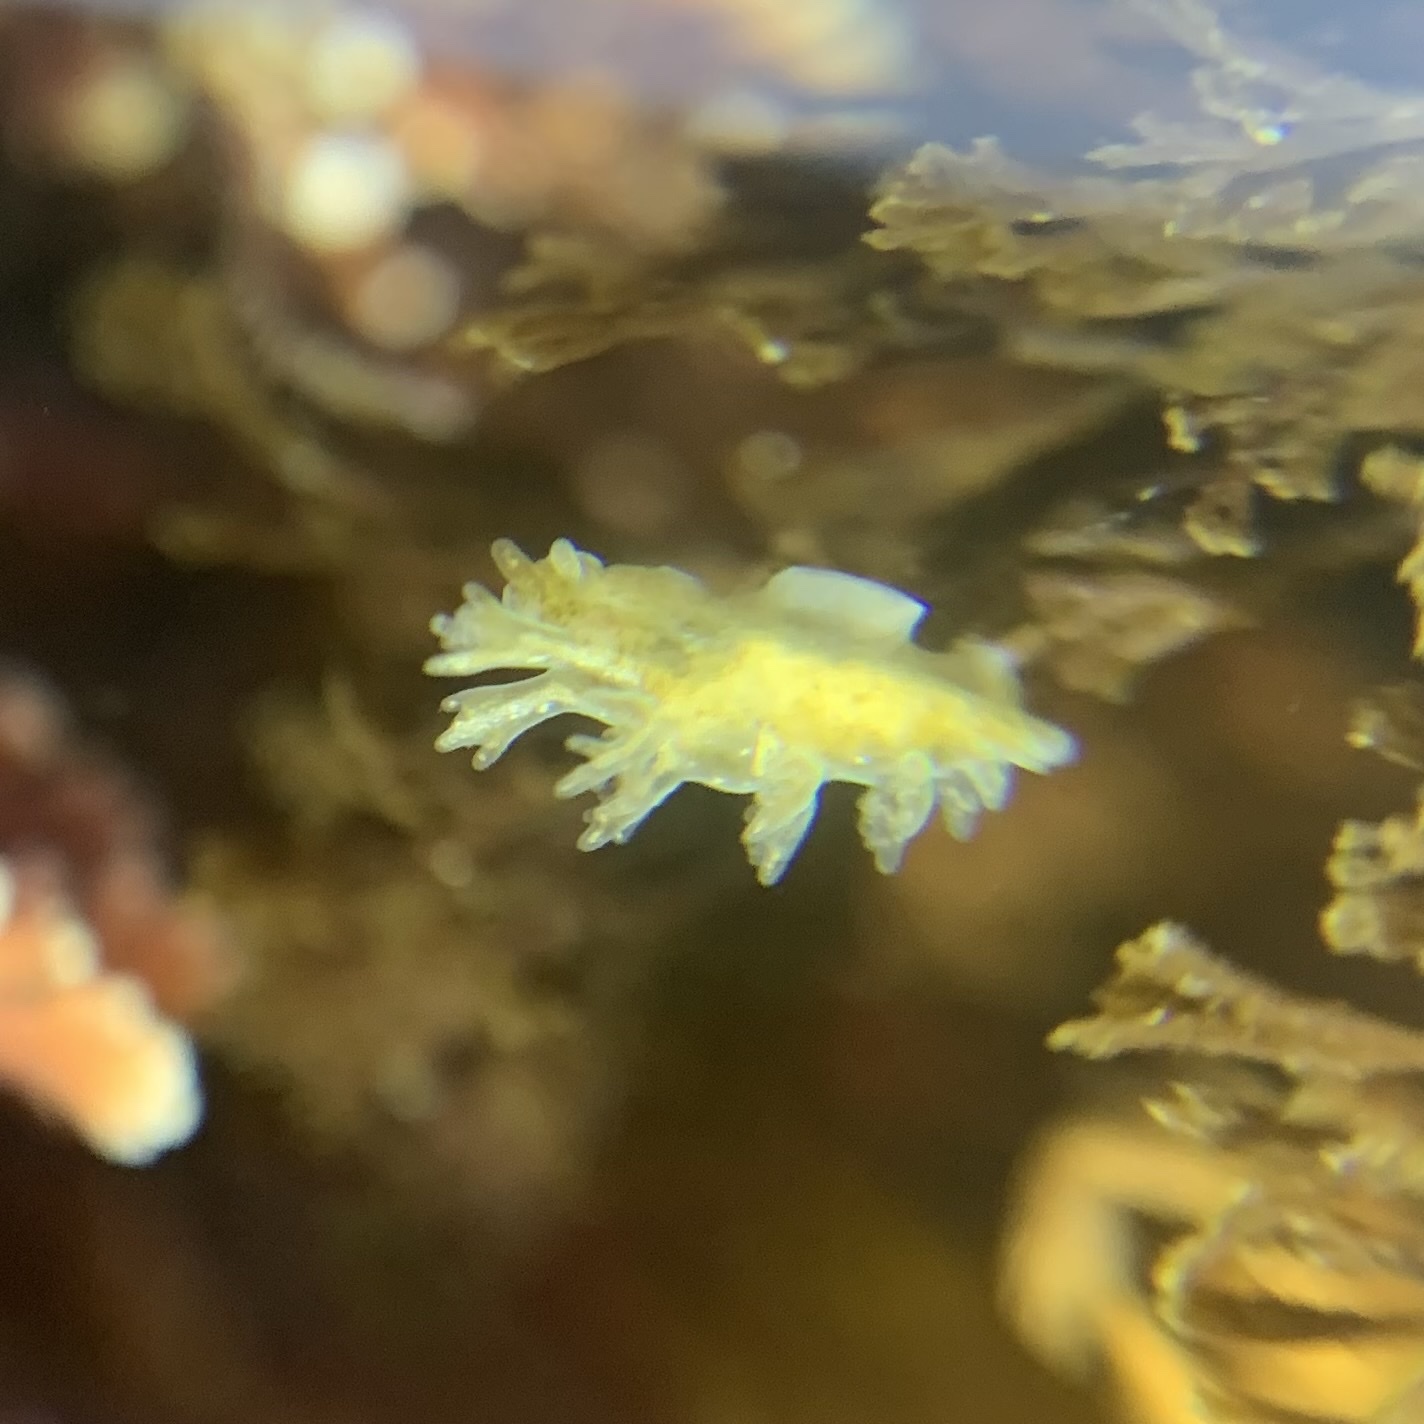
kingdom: Animalia
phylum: Mollusca
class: Gastropoda
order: Nudibranchia
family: Dendronotidae
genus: Dendronotus
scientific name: Dendronotus subramosus
